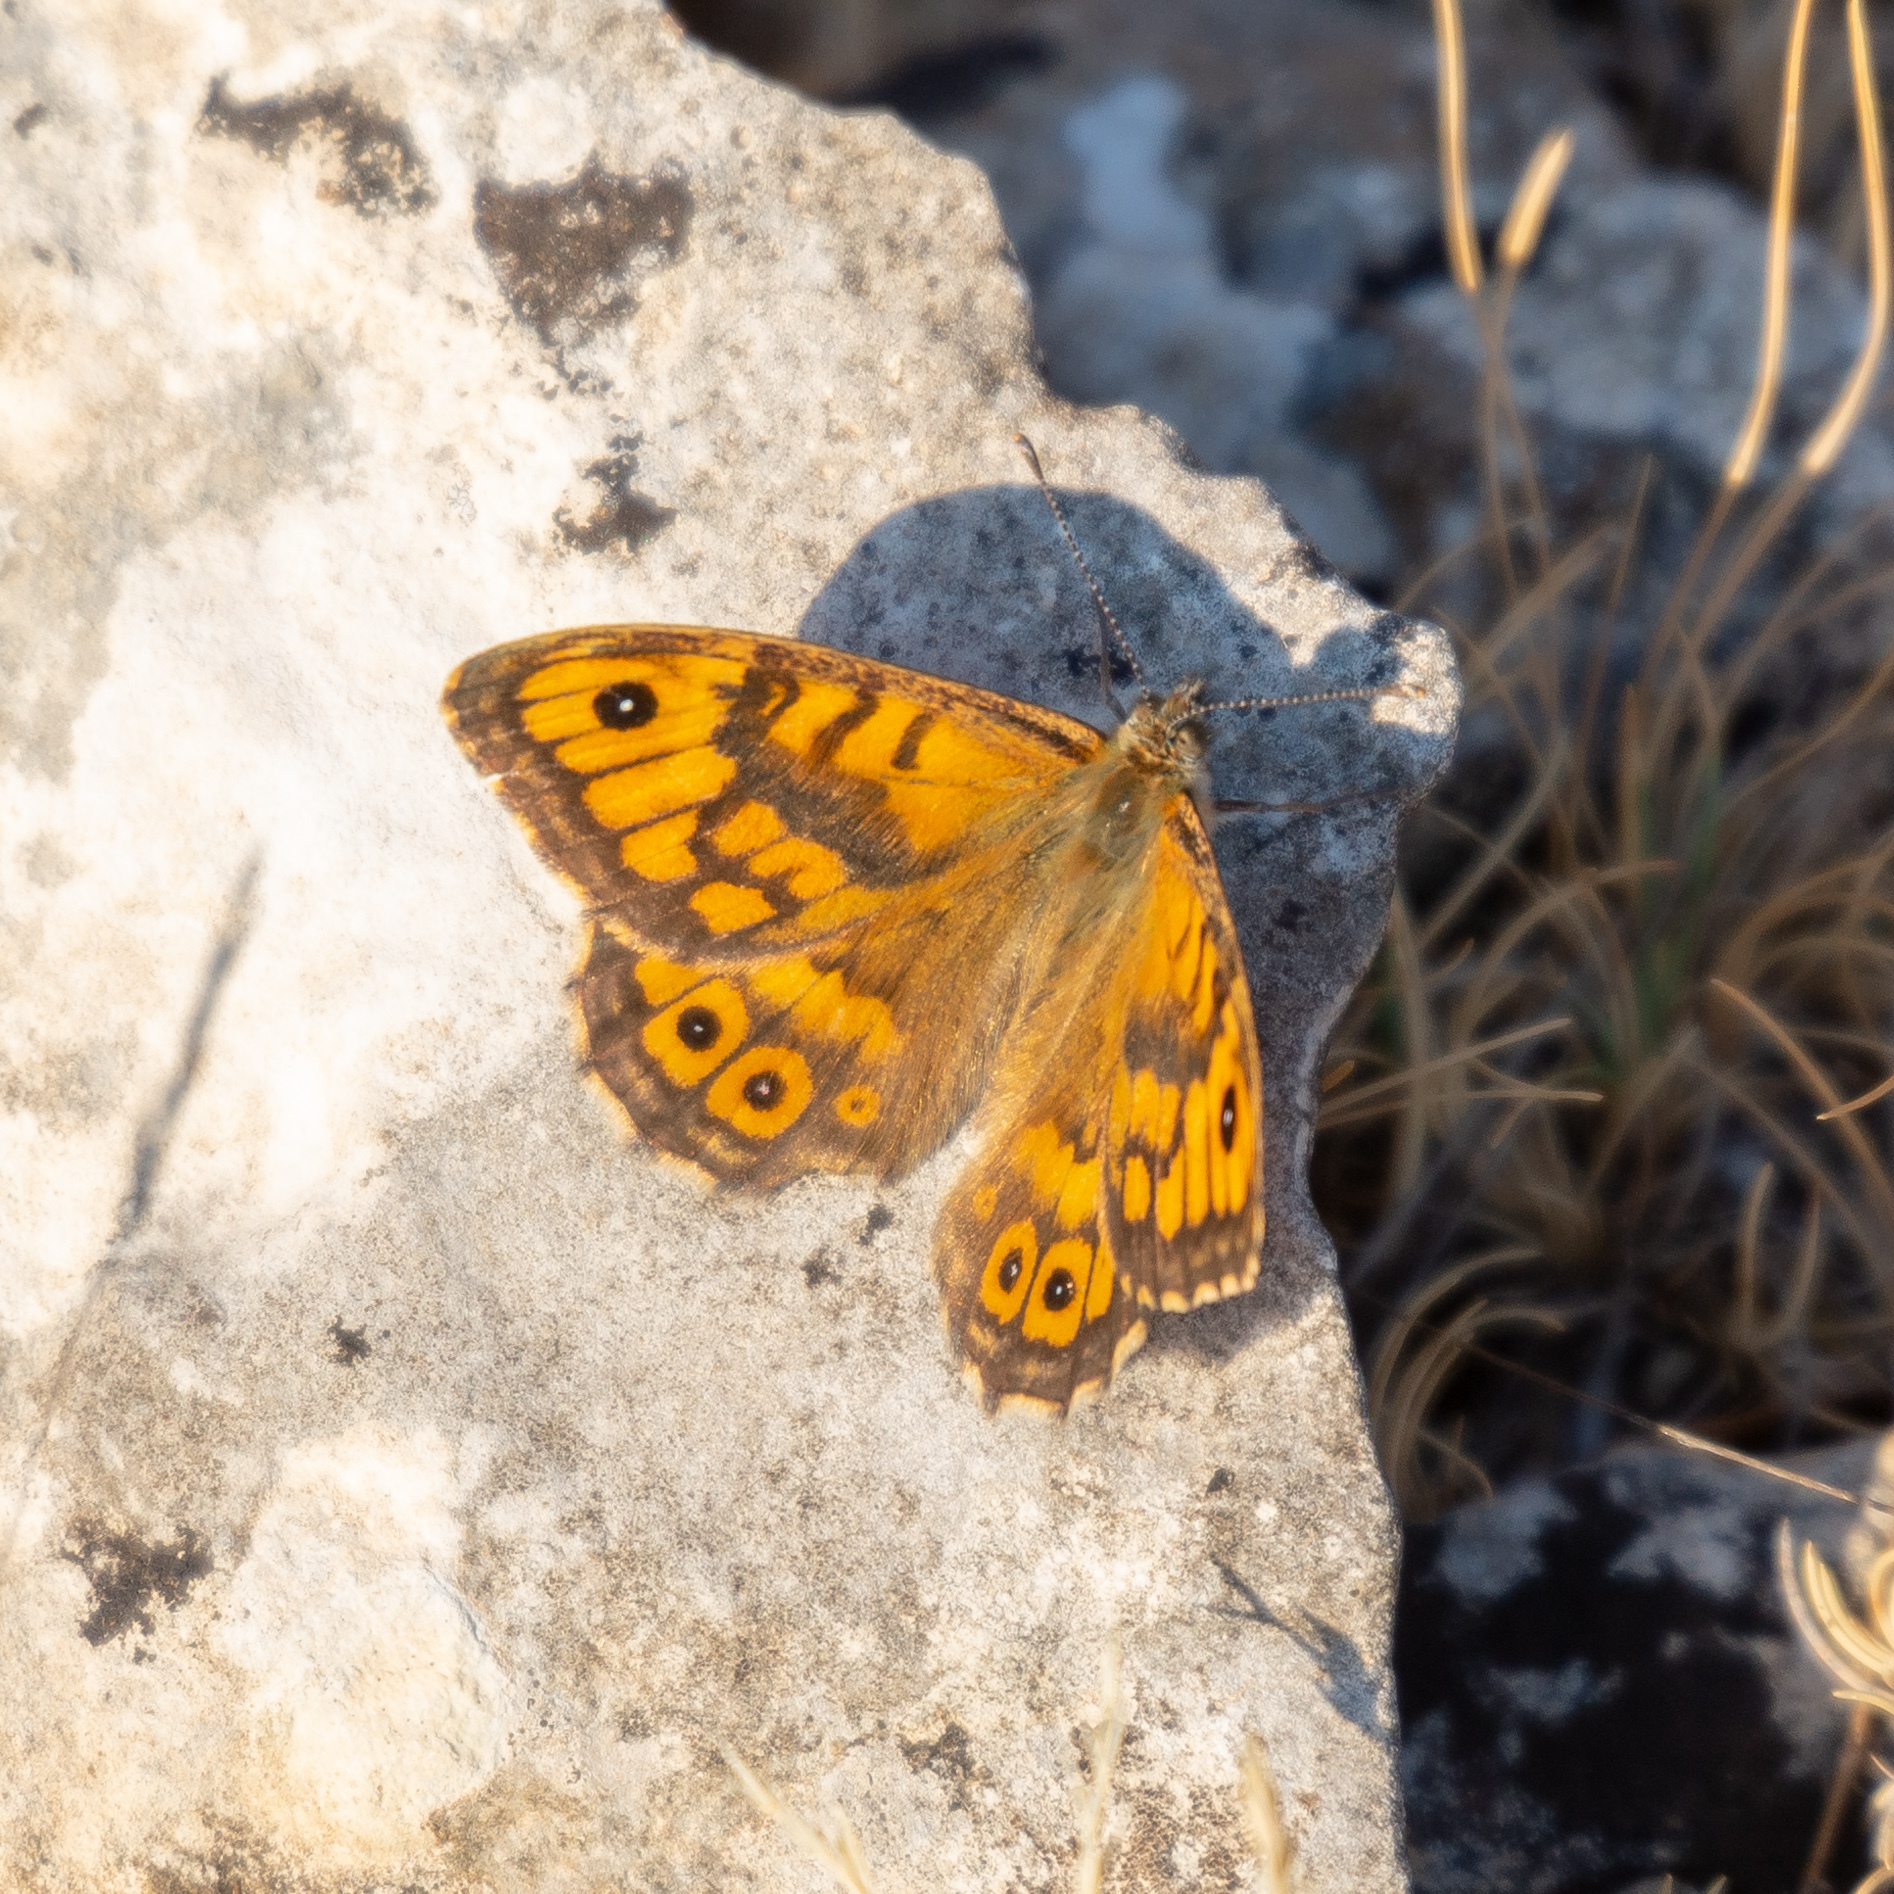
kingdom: Animalia
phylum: Arthropoda
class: Insecta
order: Lepidoptera
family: Nymphalidae
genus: Pararge
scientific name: Pararge Lasiommata megera
